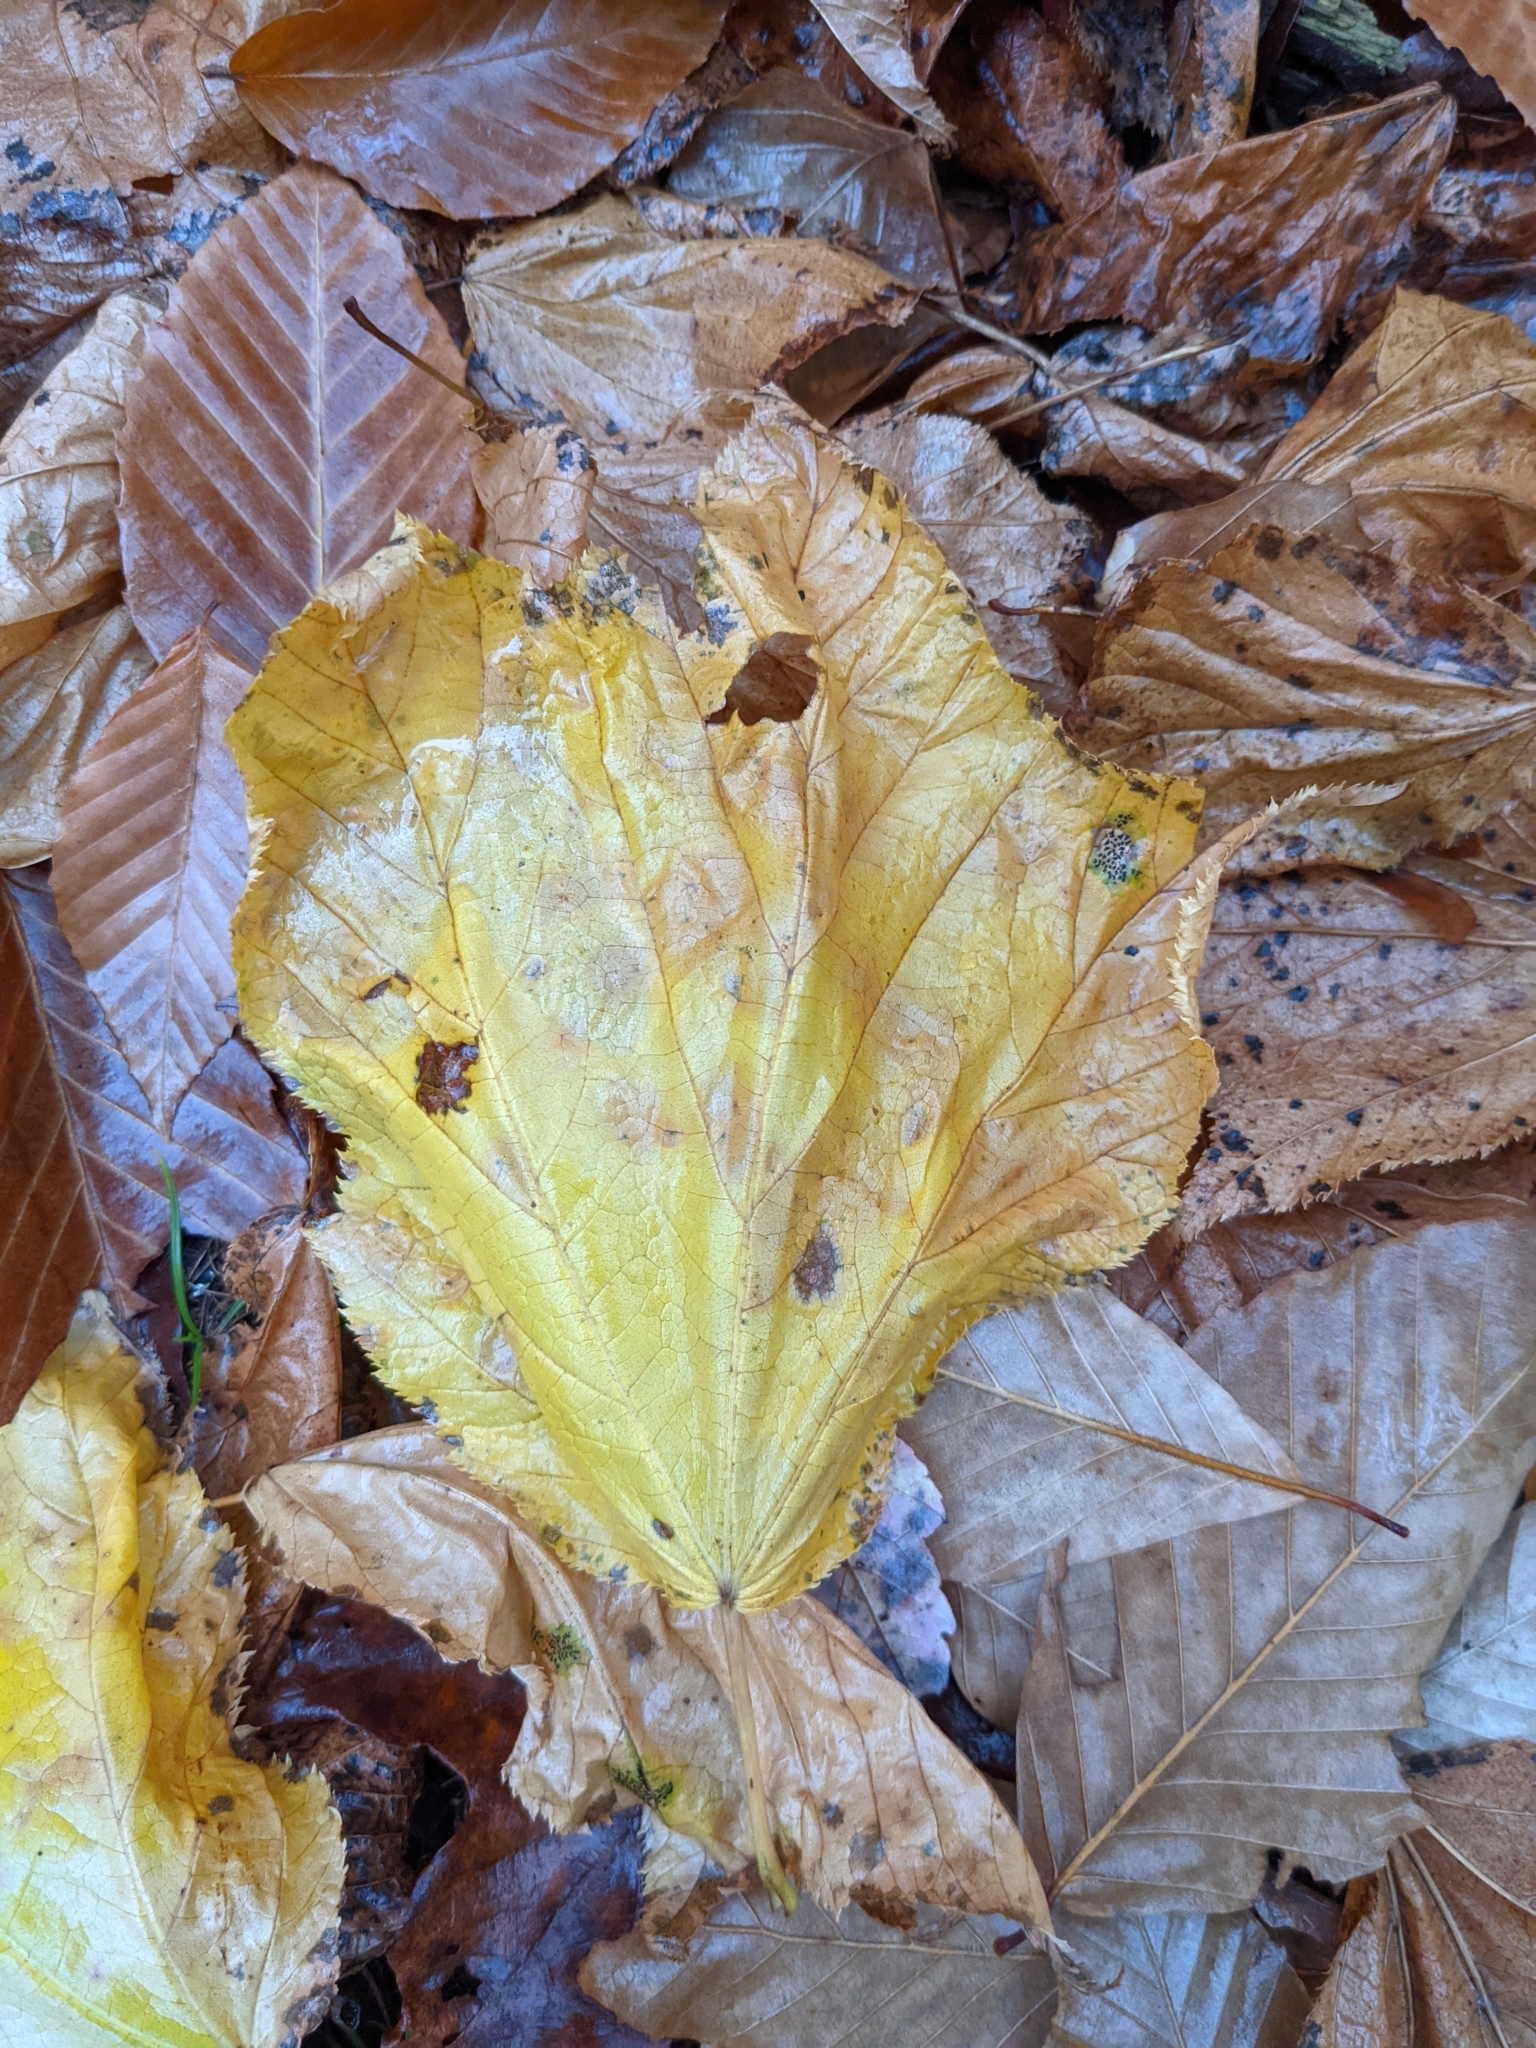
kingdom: Plantae
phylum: Tracheophyta
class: Magnoliopsida
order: Sapindales
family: Sapindaceae
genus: Acer
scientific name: Acer pensylvanicum
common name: Moosewood
